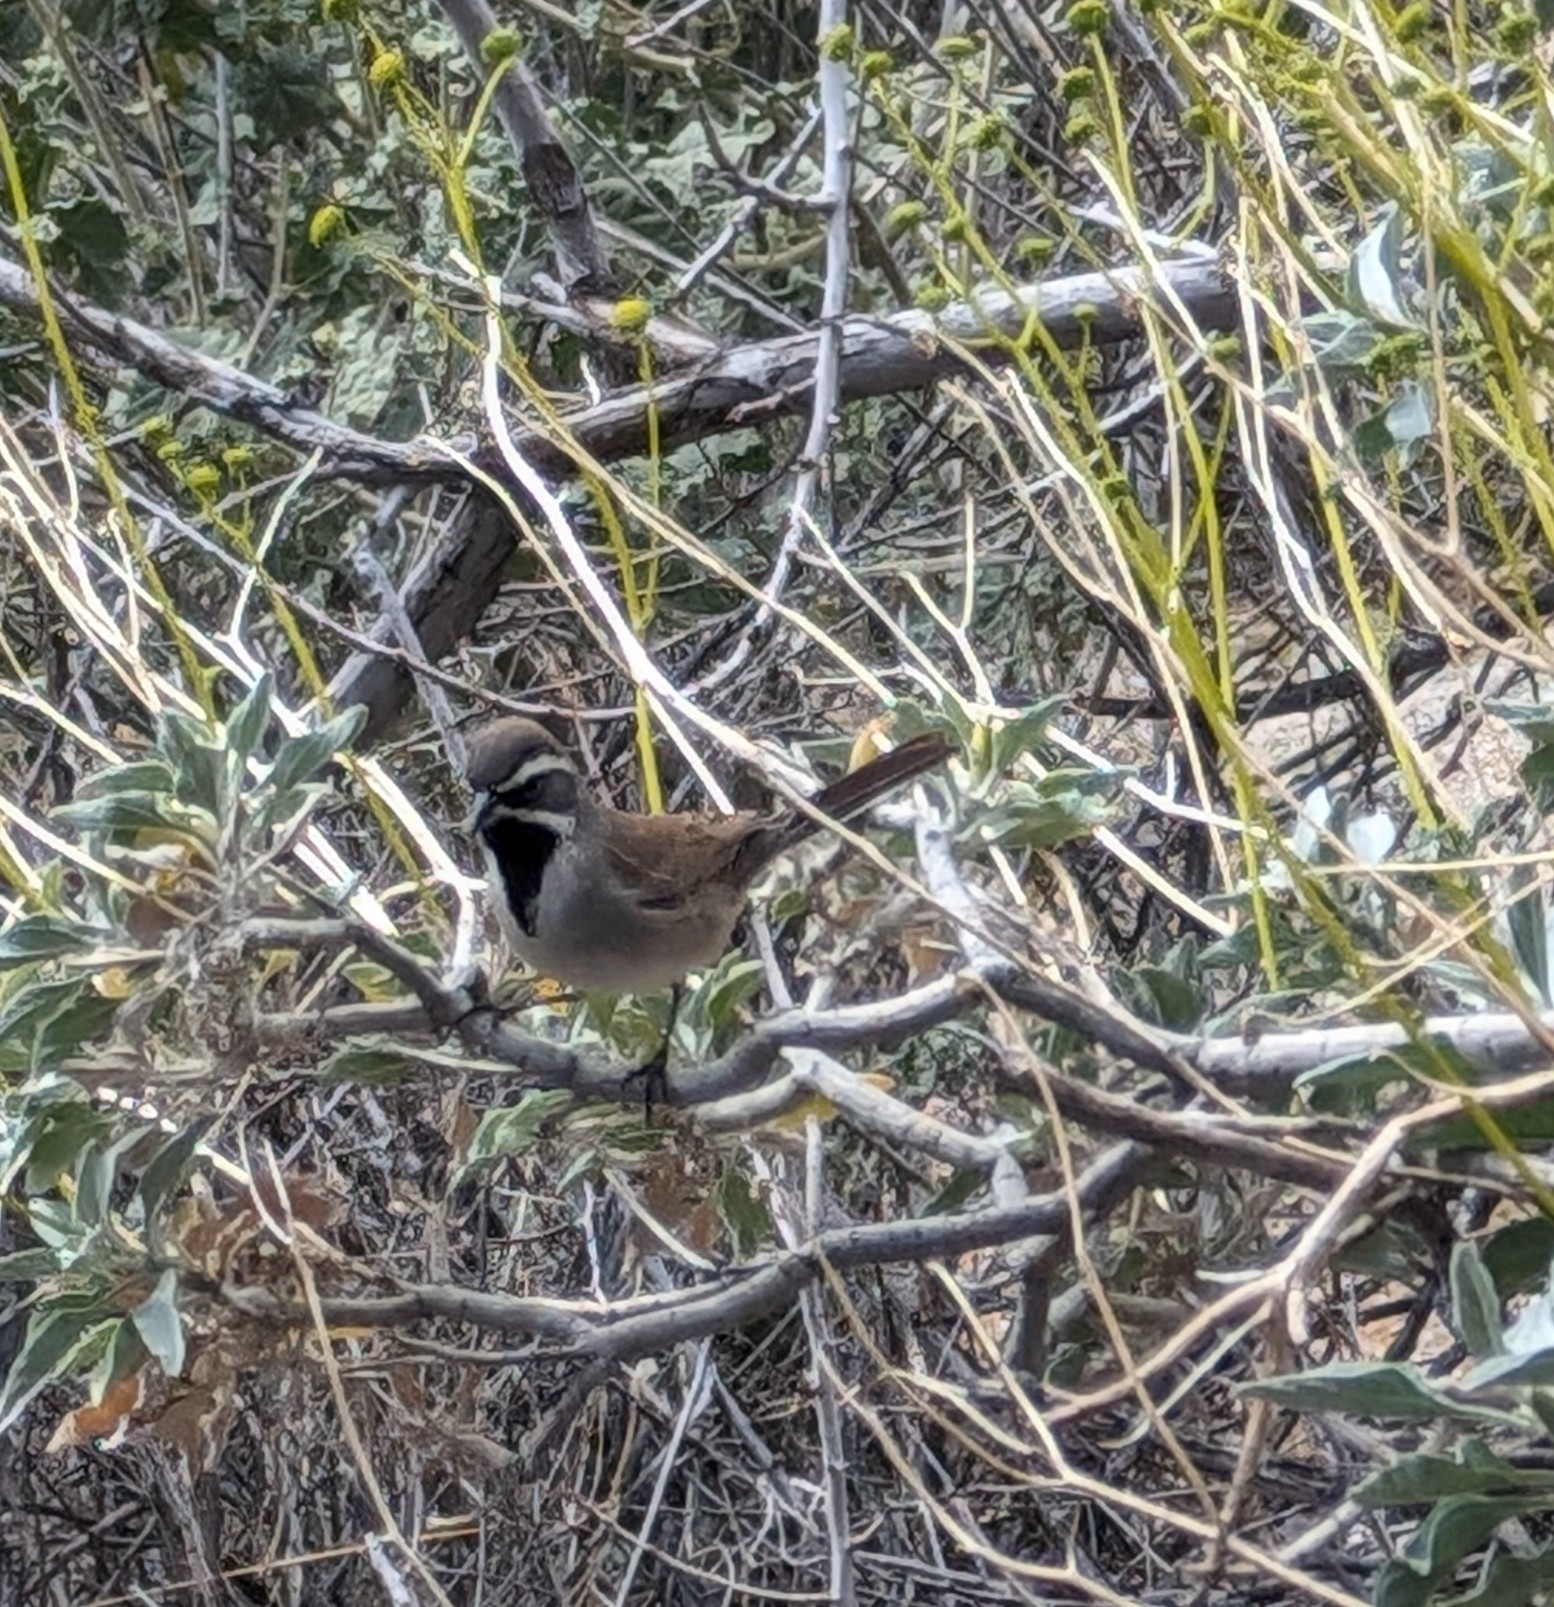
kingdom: Animalia
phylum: Chordata
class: Aves
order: Passeriformes
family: Passerellidae
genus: Amphispiza
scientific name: Amphispiza bilineata
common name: Black-throated sparrow
